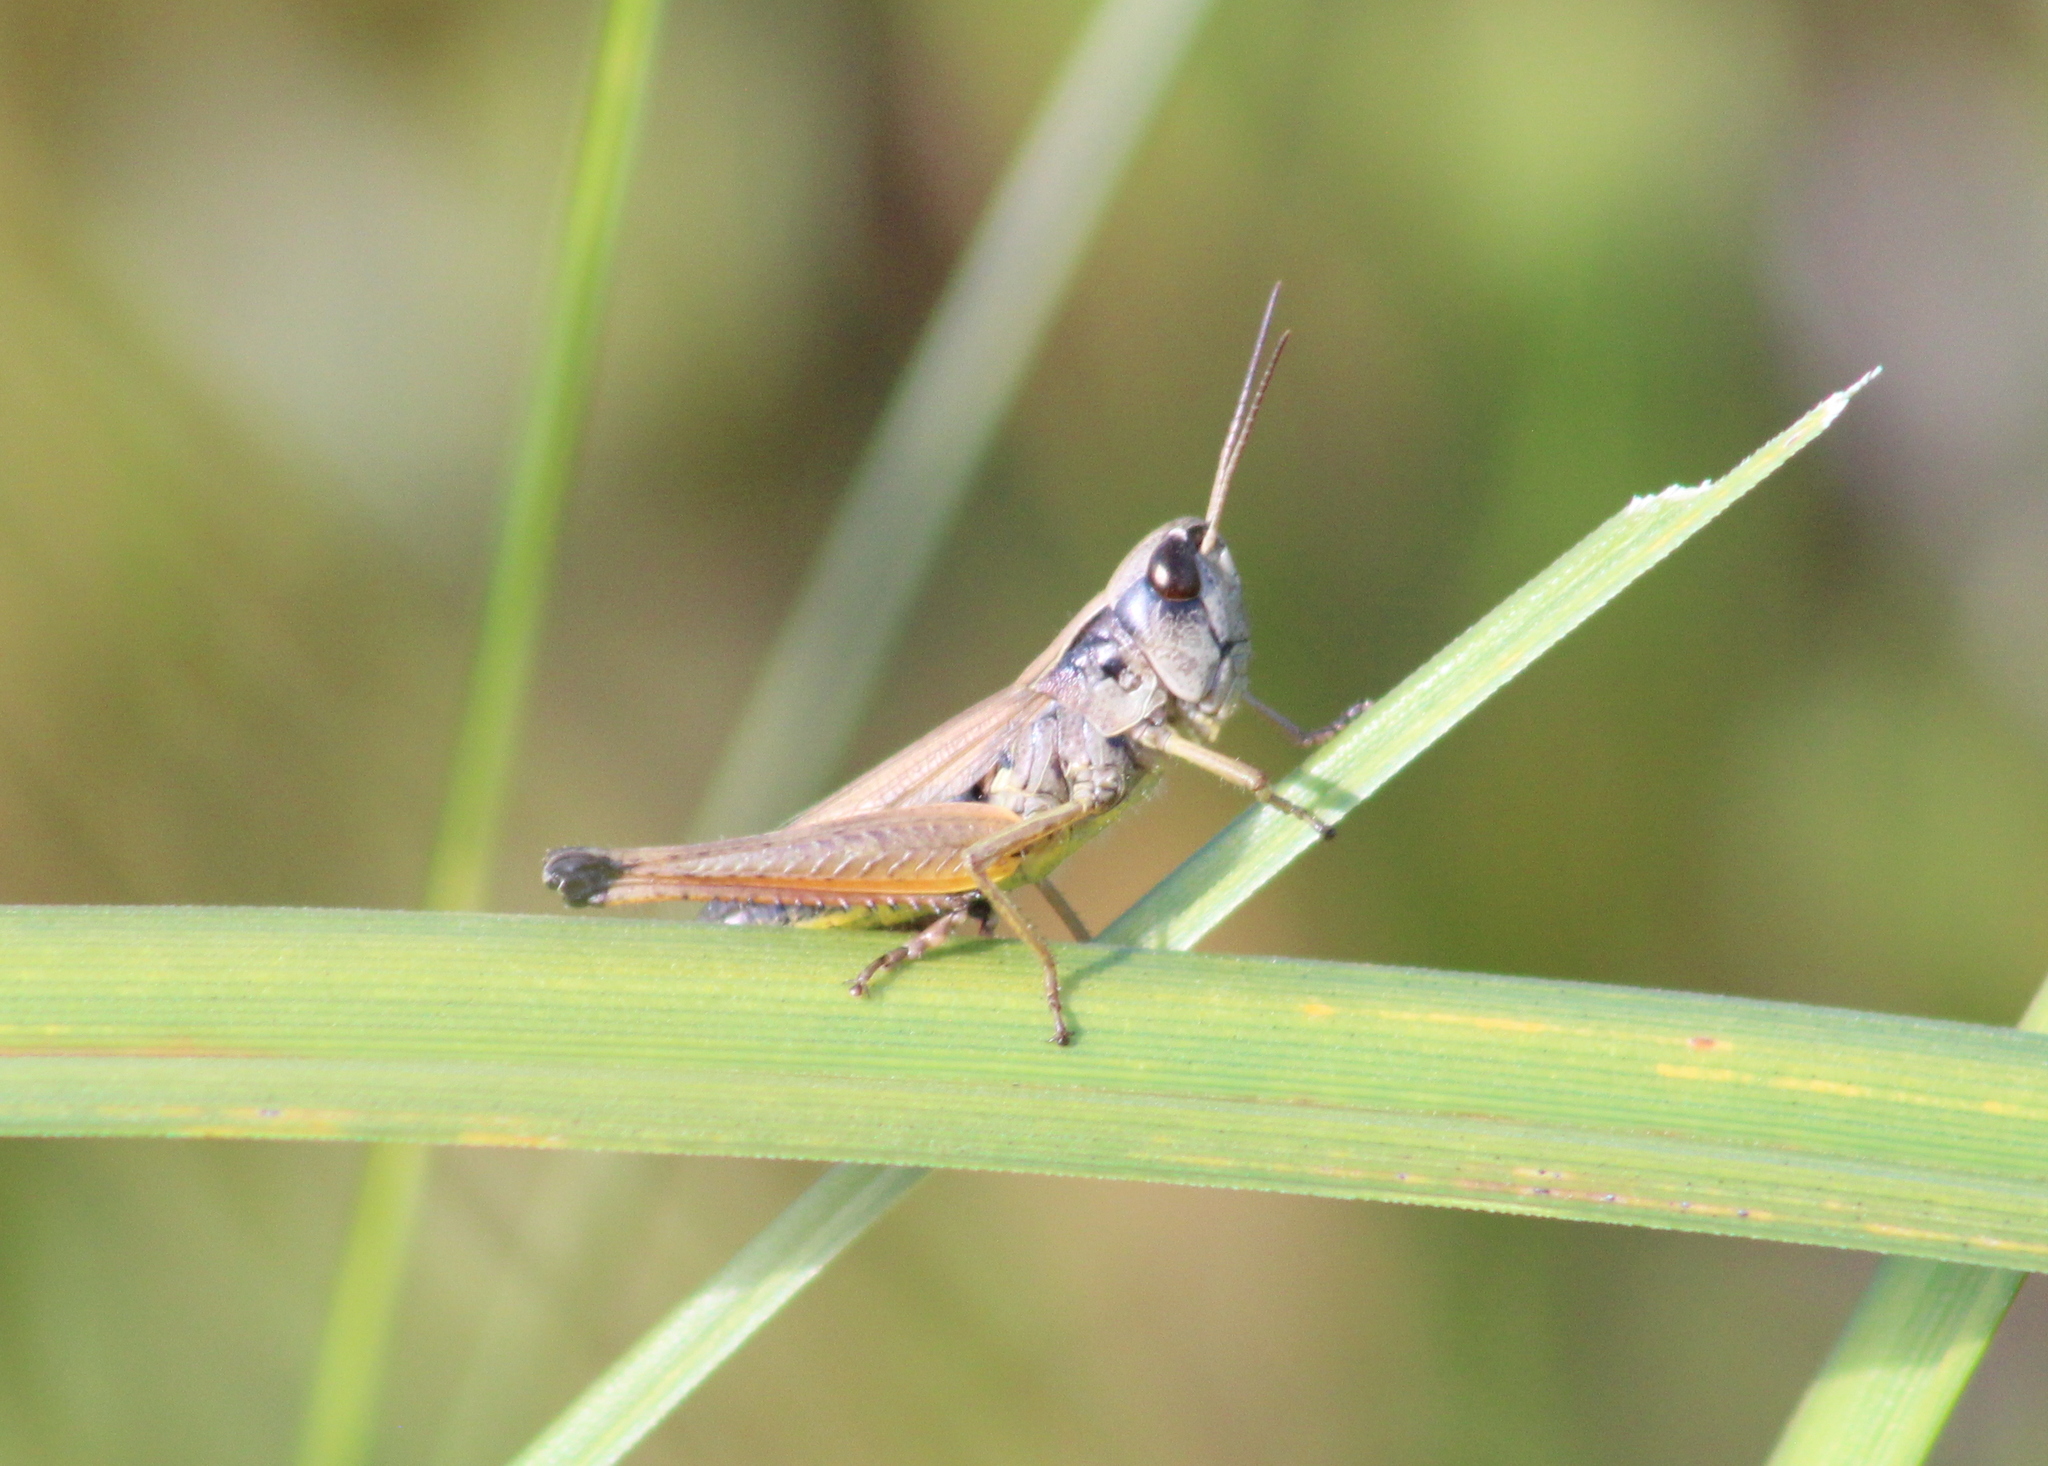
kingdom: Animalia
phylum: Arthropoda
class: Insecta
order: Orthoptera
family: Acrididae
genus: Pseudochorthippus
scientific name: Pseudochorthippus curtipennis
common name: Marsh meadow grasshopper
